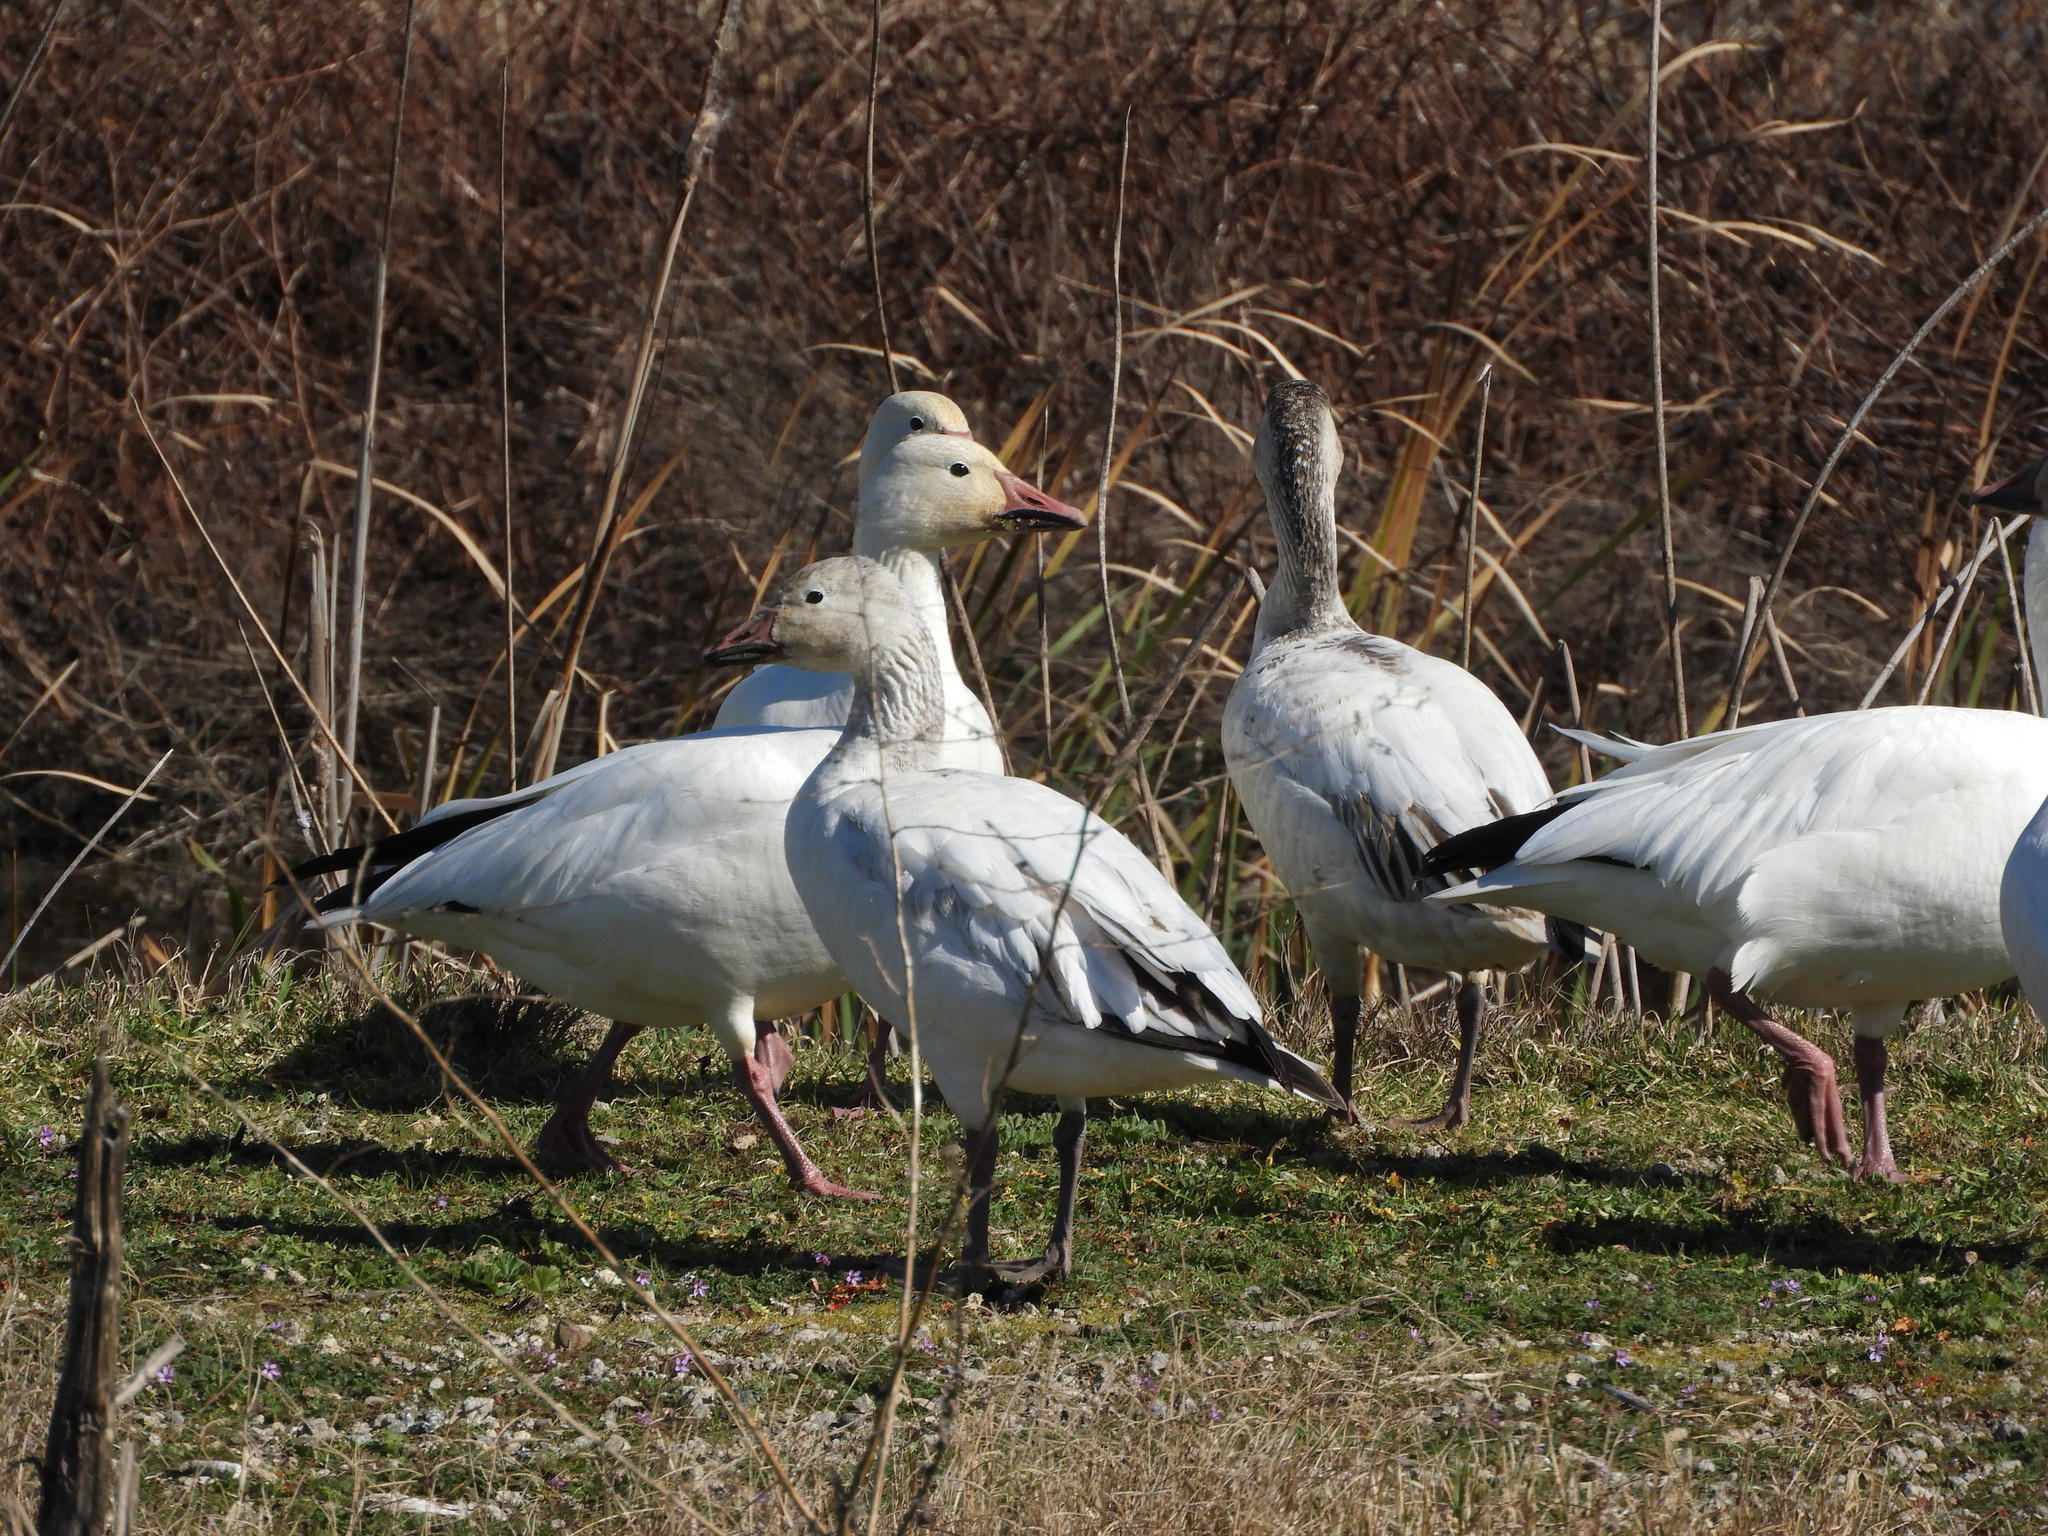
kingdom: Animalia
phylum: Chordata
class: Aves
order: Anseriformes
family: Anatidae
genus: Anser
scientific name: Anser caerulescens
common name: Snow goose
